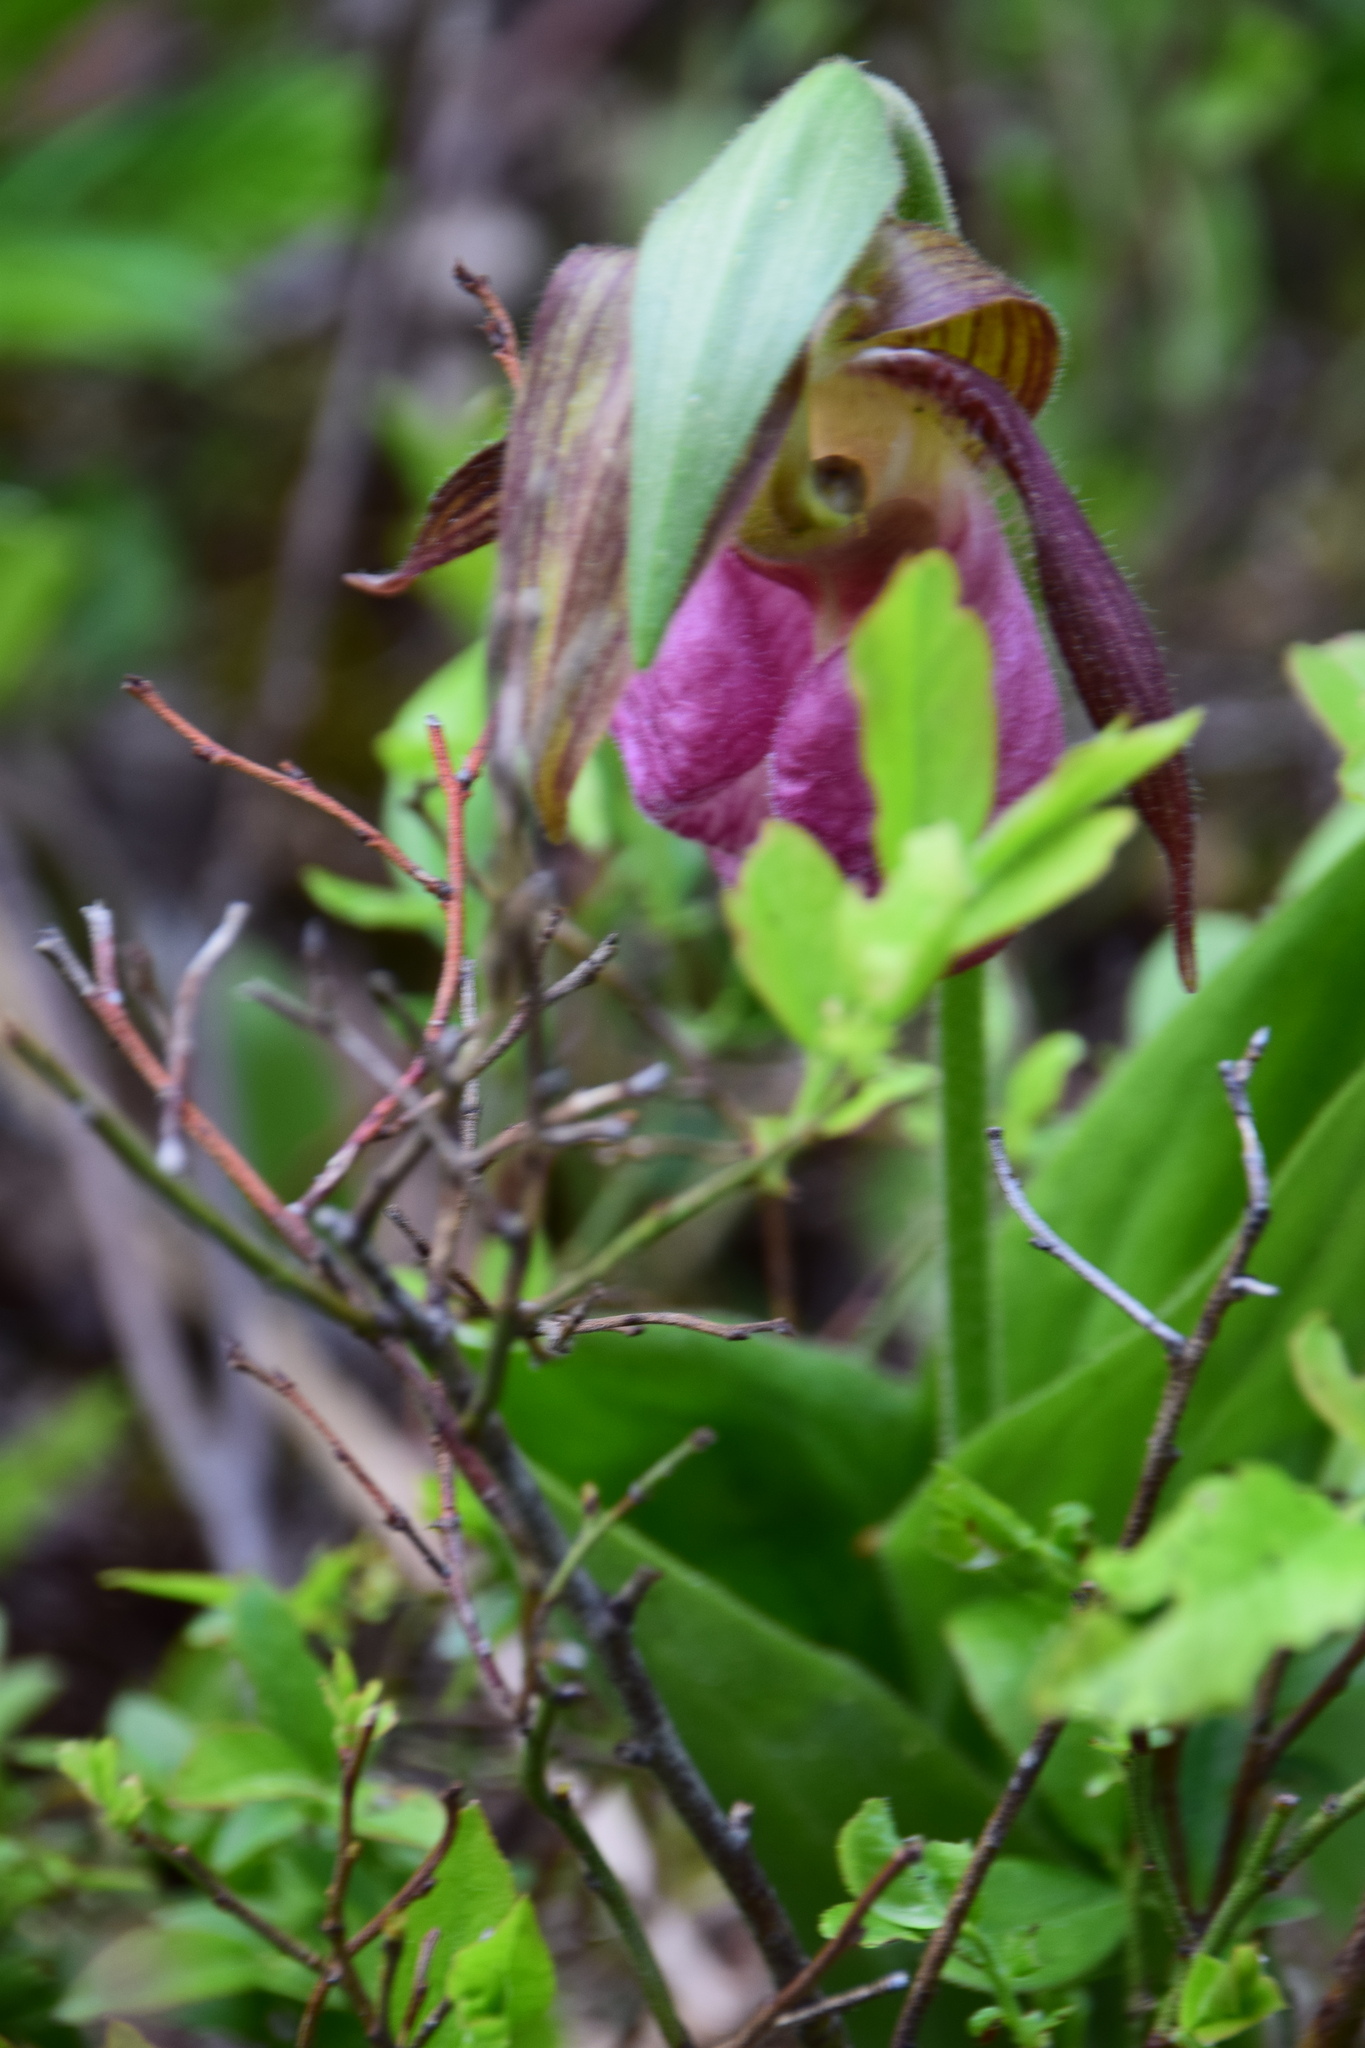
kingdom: Plantae
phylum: Tracheophyta
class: Liliopsida
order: Asparagales
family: Orchidaceae
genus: Cypripedium
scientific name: Cypripedium acaule
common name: Pink lady's-slipper
